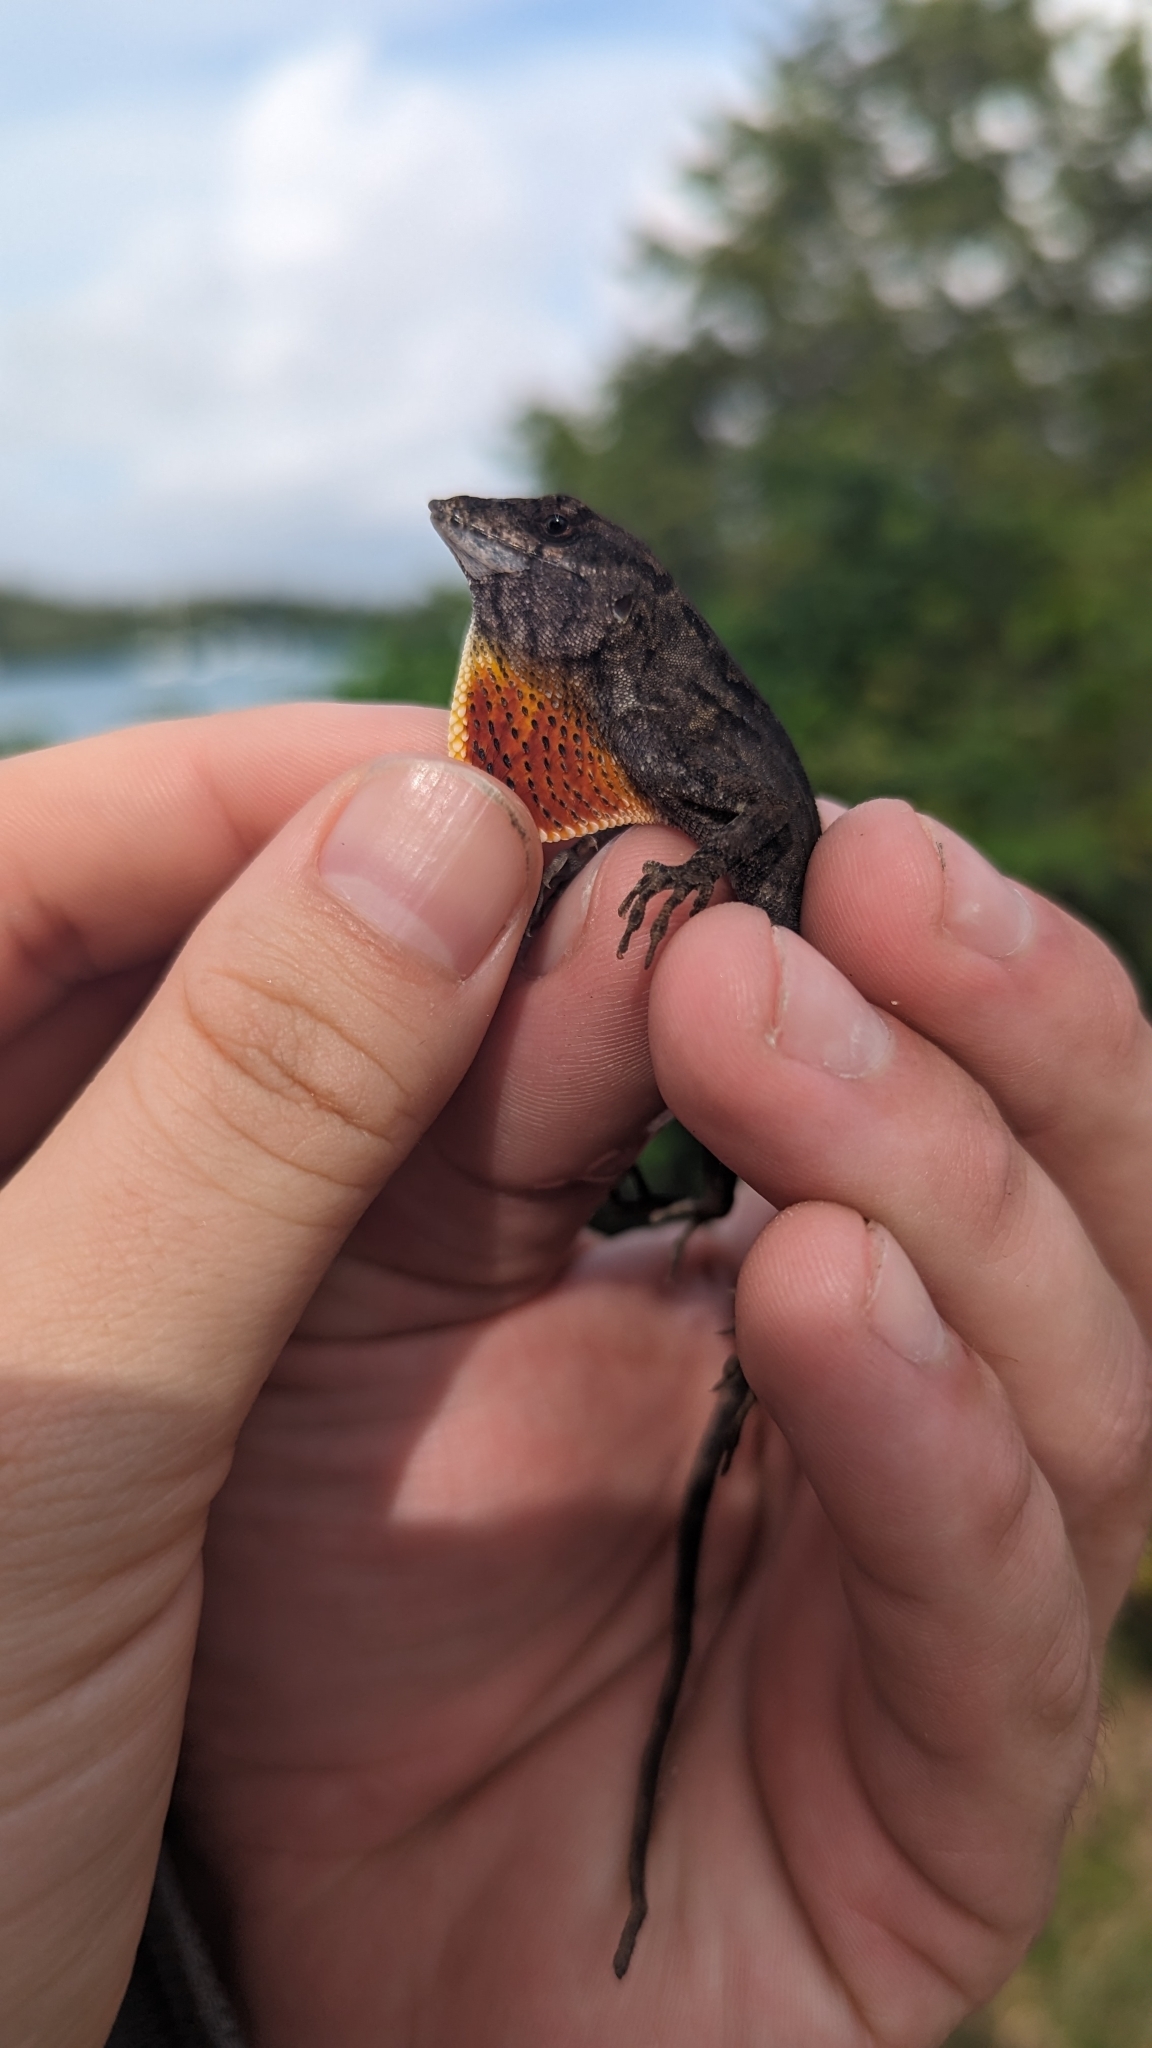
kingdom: Animalia
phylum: Chordata
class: Squamata
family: Dactyloidae
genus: Anolis
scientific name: Anolis sagrei
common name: Brown anole
